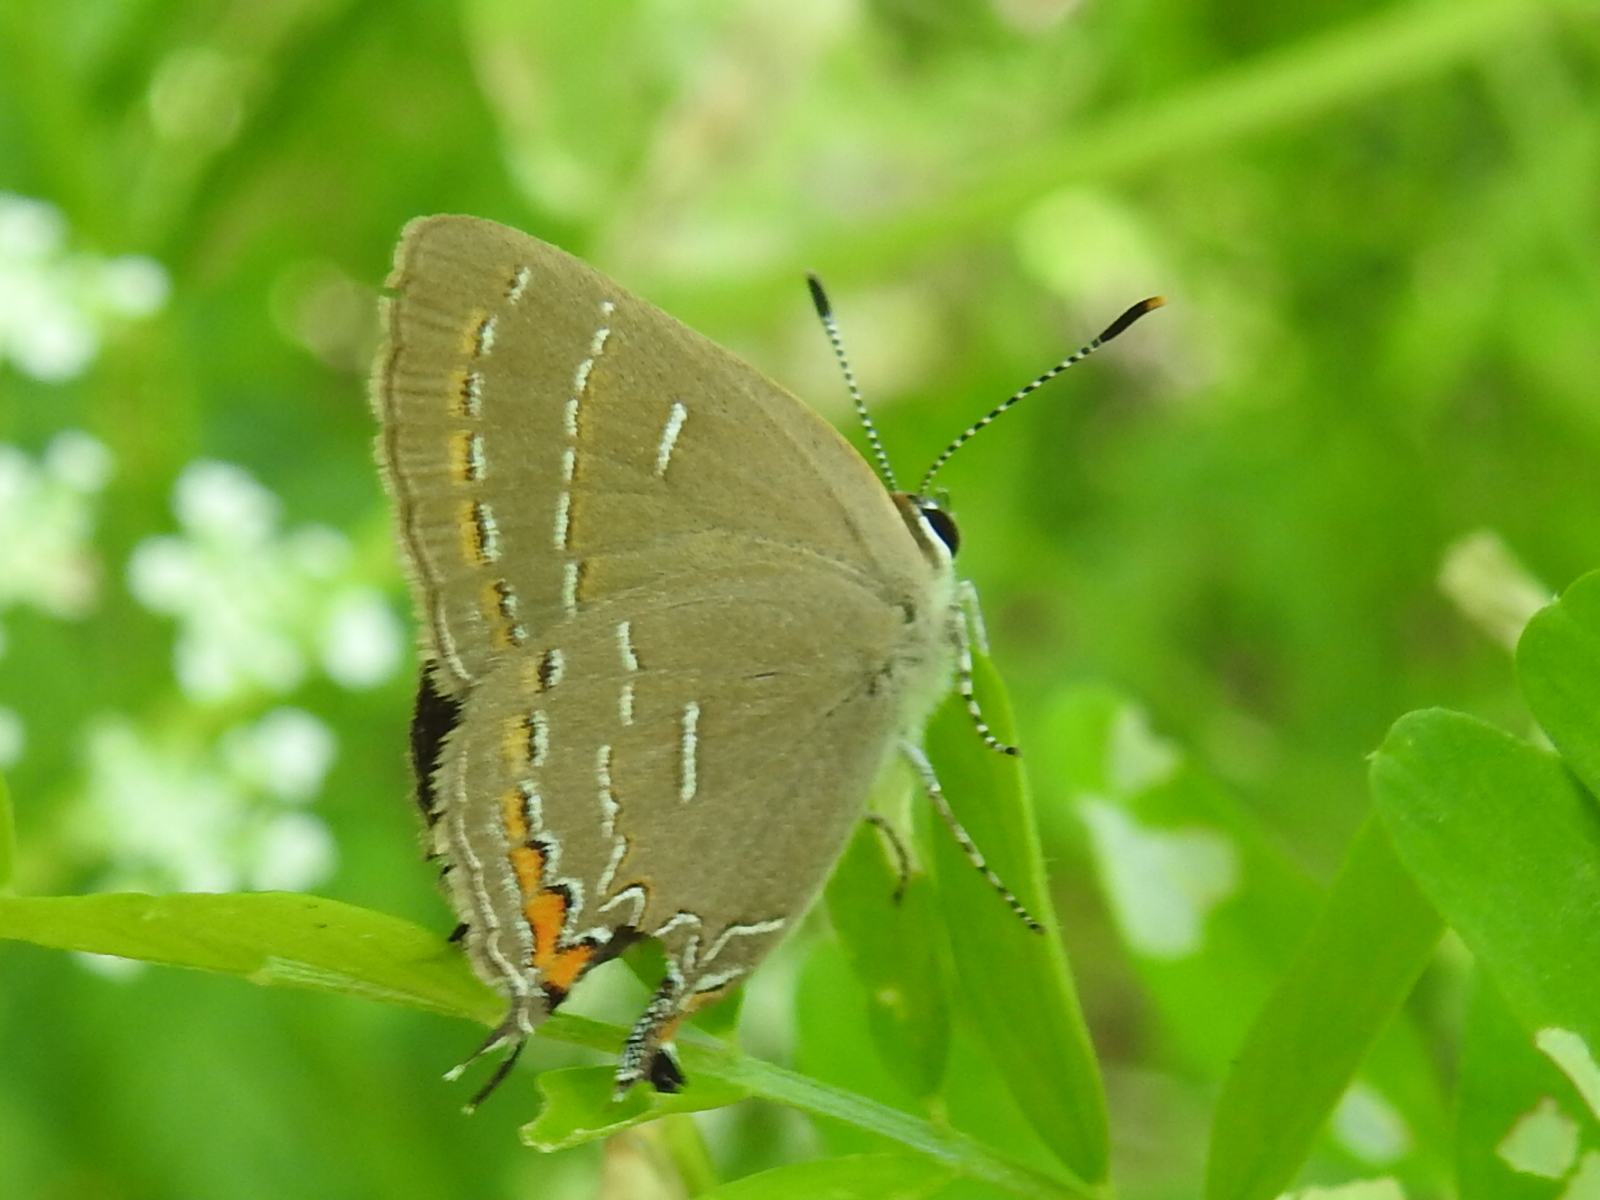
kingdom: Animalia
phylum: Arthropoda
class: Insecta
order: Lepidoptera
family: Lycaenidae
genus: Phaeostrymon
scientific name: Phaeostrymon alcestis
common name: Soapberry hairstreak
